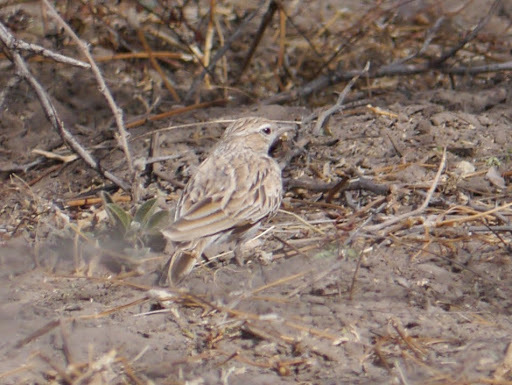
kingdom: Animalia
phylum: Chordata
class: Aves
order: Passeriformes
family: Alaudidae
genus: Calendulauda
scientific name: Calendulauda africanoides
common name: Fawn-colored lark
